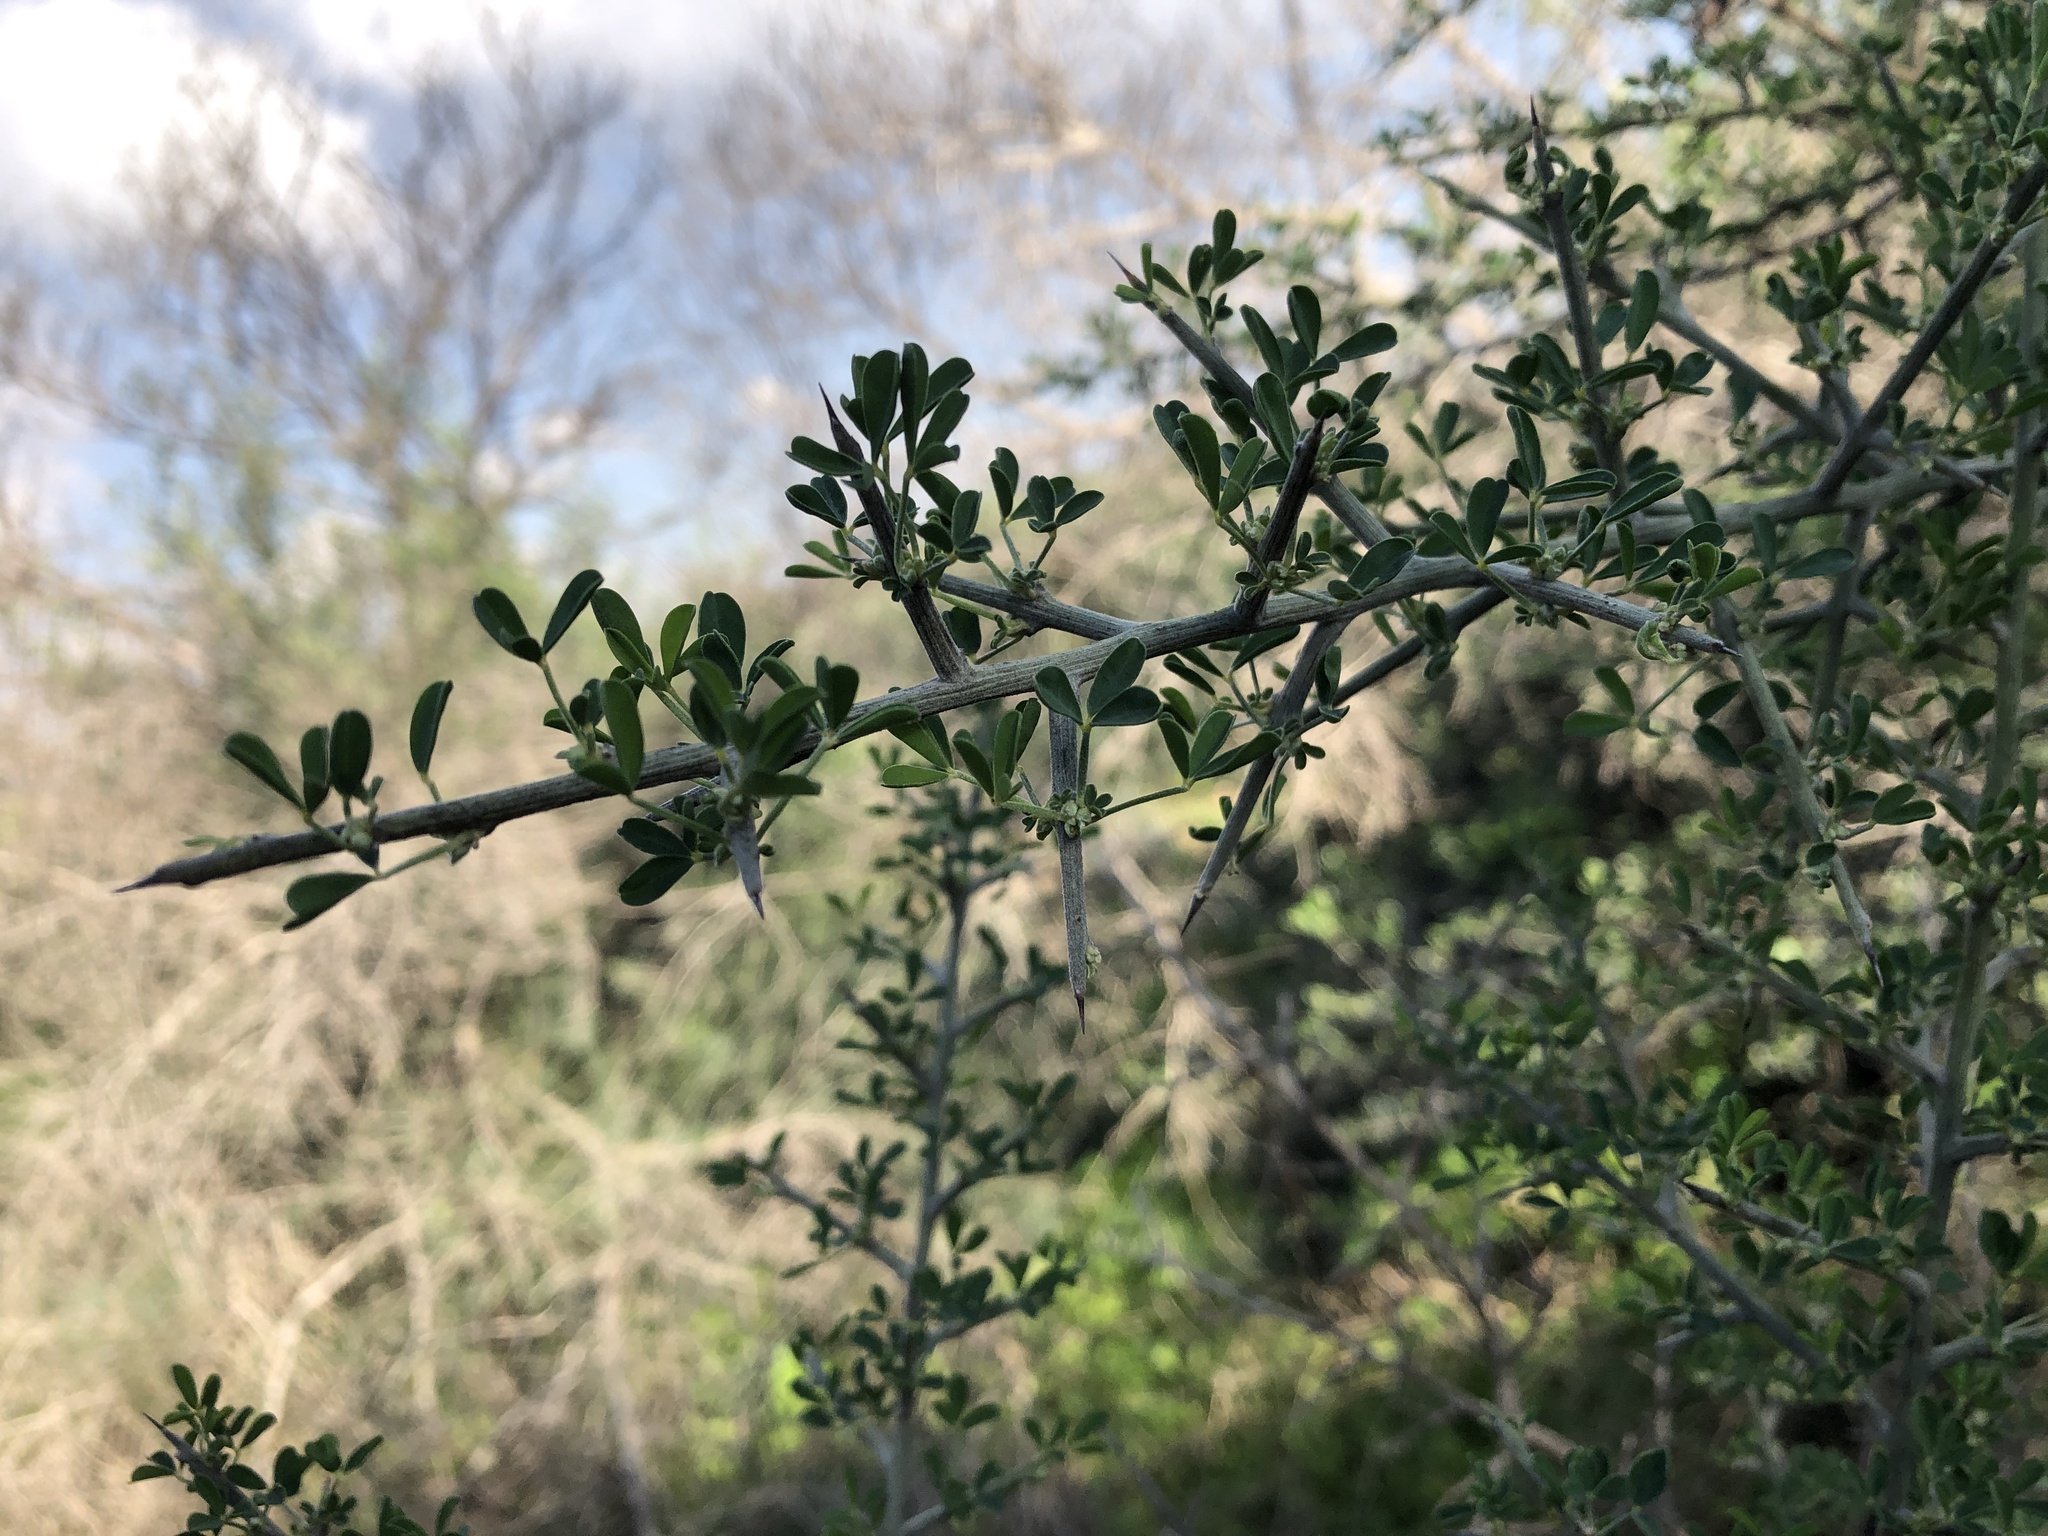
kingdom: Plantae
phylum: Tracheophyta
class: Magnoliopsida
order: Fabales
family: Fabaceae
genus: Calicotome
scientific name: Calicotome villosa
